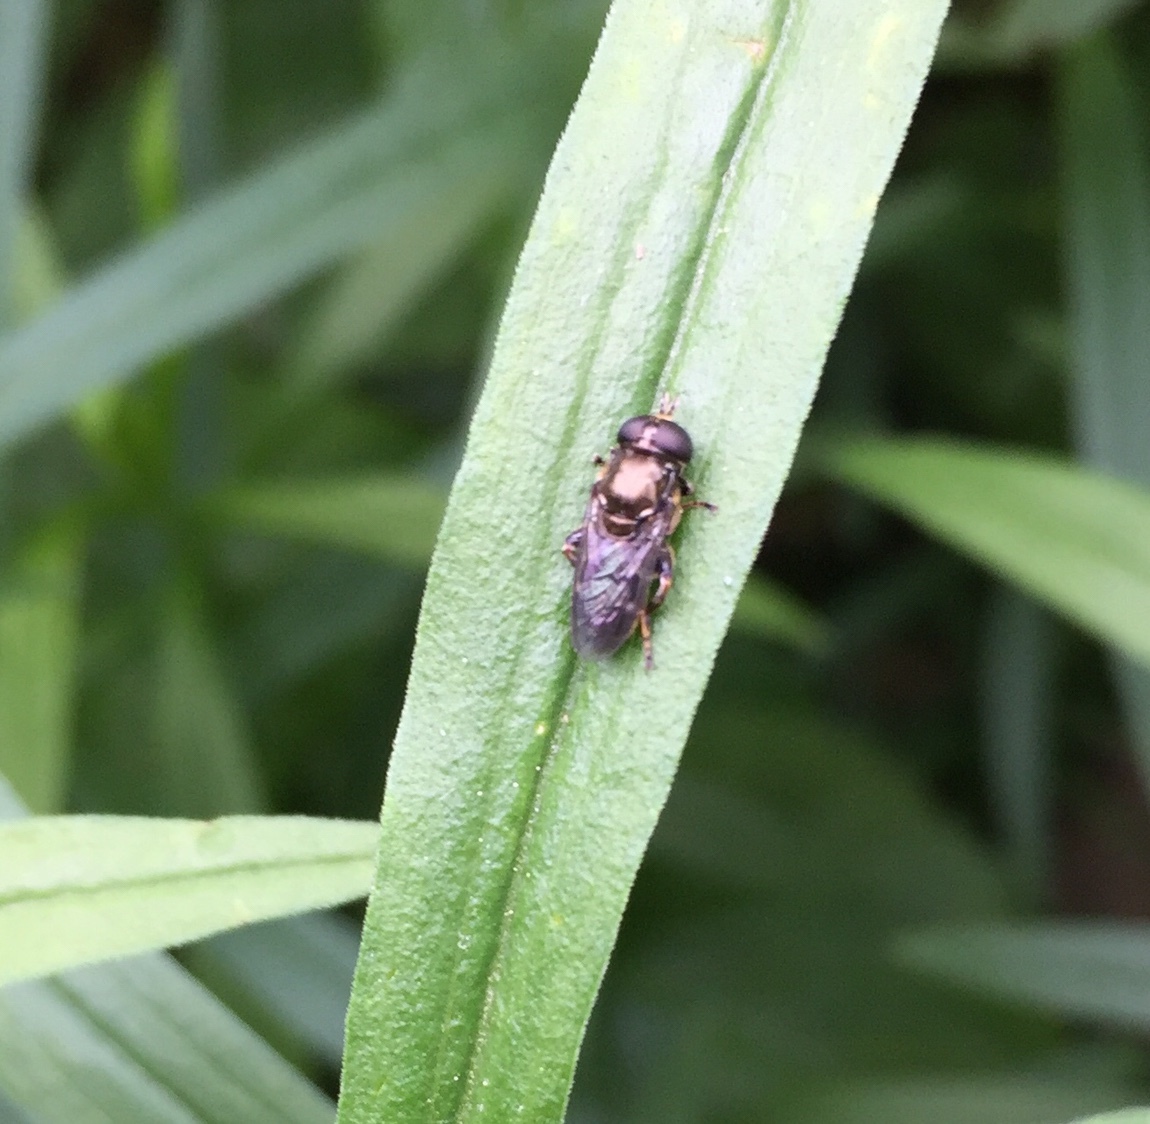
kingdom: Animalia
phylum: Arthropoda
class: Insecta
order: Diptera
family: Syrphidae
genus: Eumerus
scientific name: Eumerus
